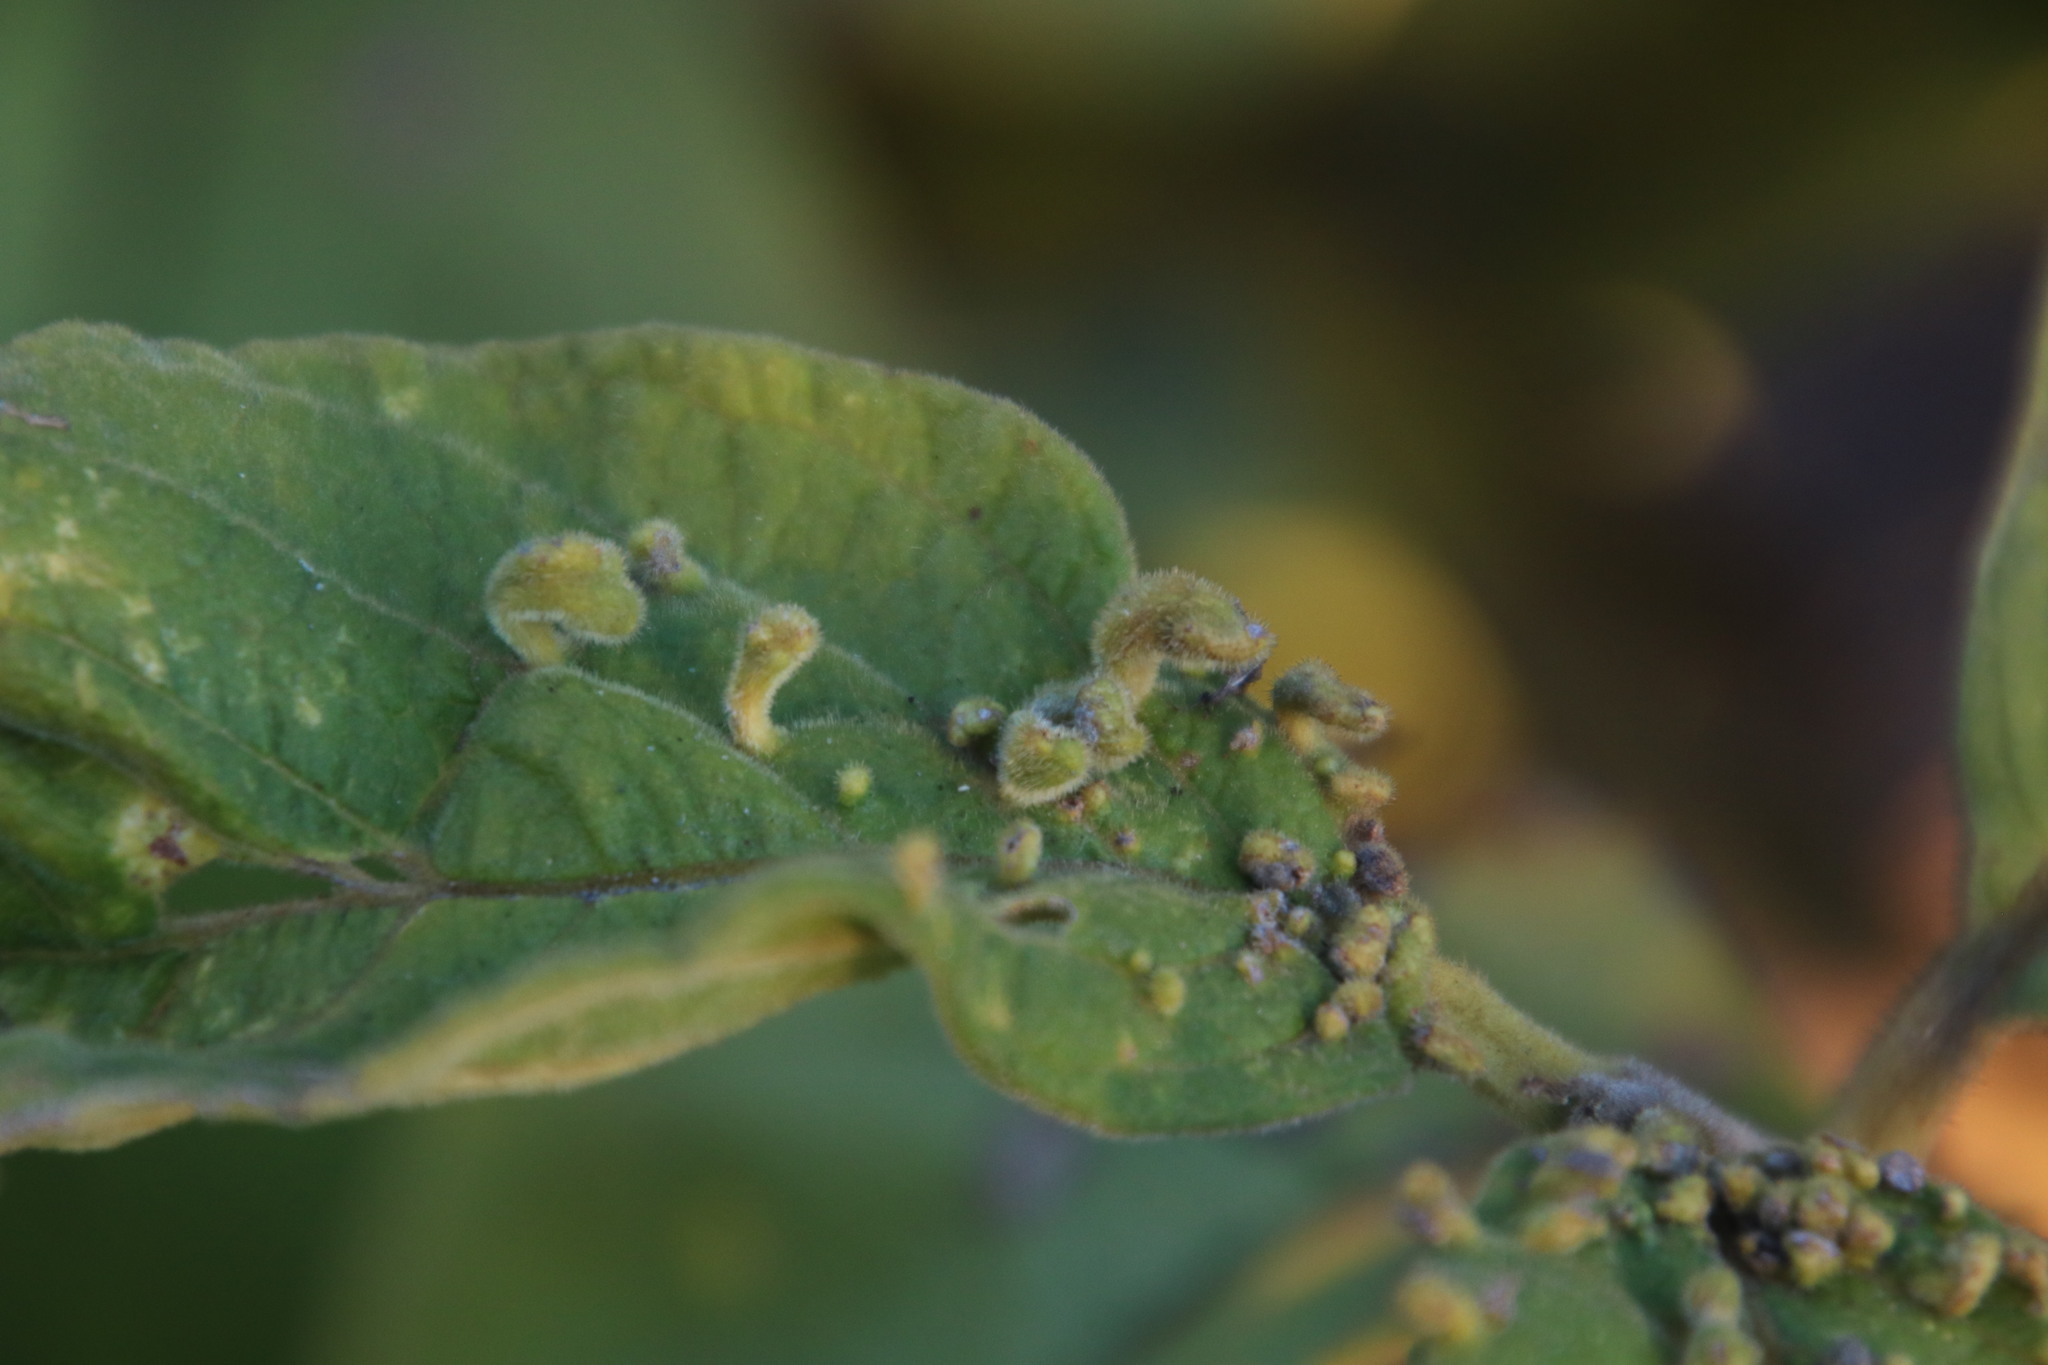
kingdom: Plantae
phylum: Tracheophyta
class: Magnoliopsida
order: Myrtales
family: Combretaceae
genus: Combretum
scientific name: Combretum molle
